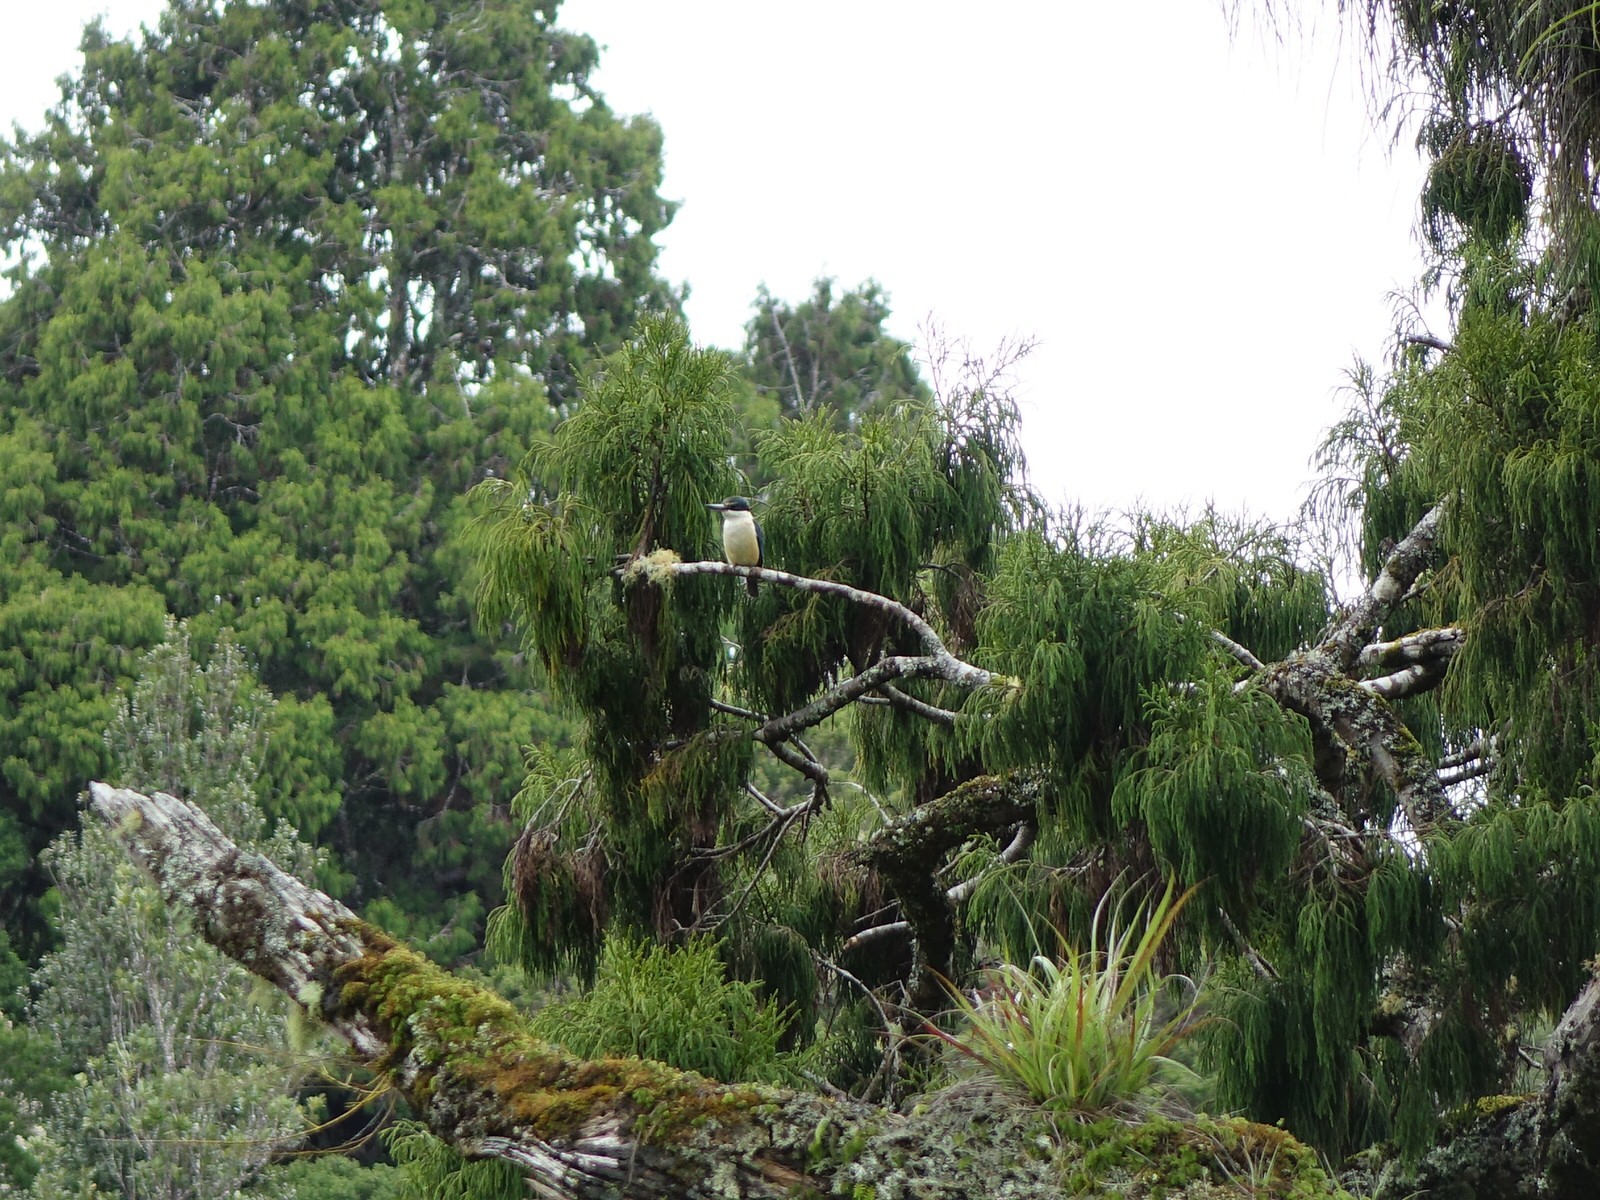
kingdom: Animalia
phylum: Chordata
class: Aves
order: Coraciiformes
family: Alcedinidae
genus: Todiramphus
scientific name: Todiramphus sanctus
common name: Sacred kingfisher
